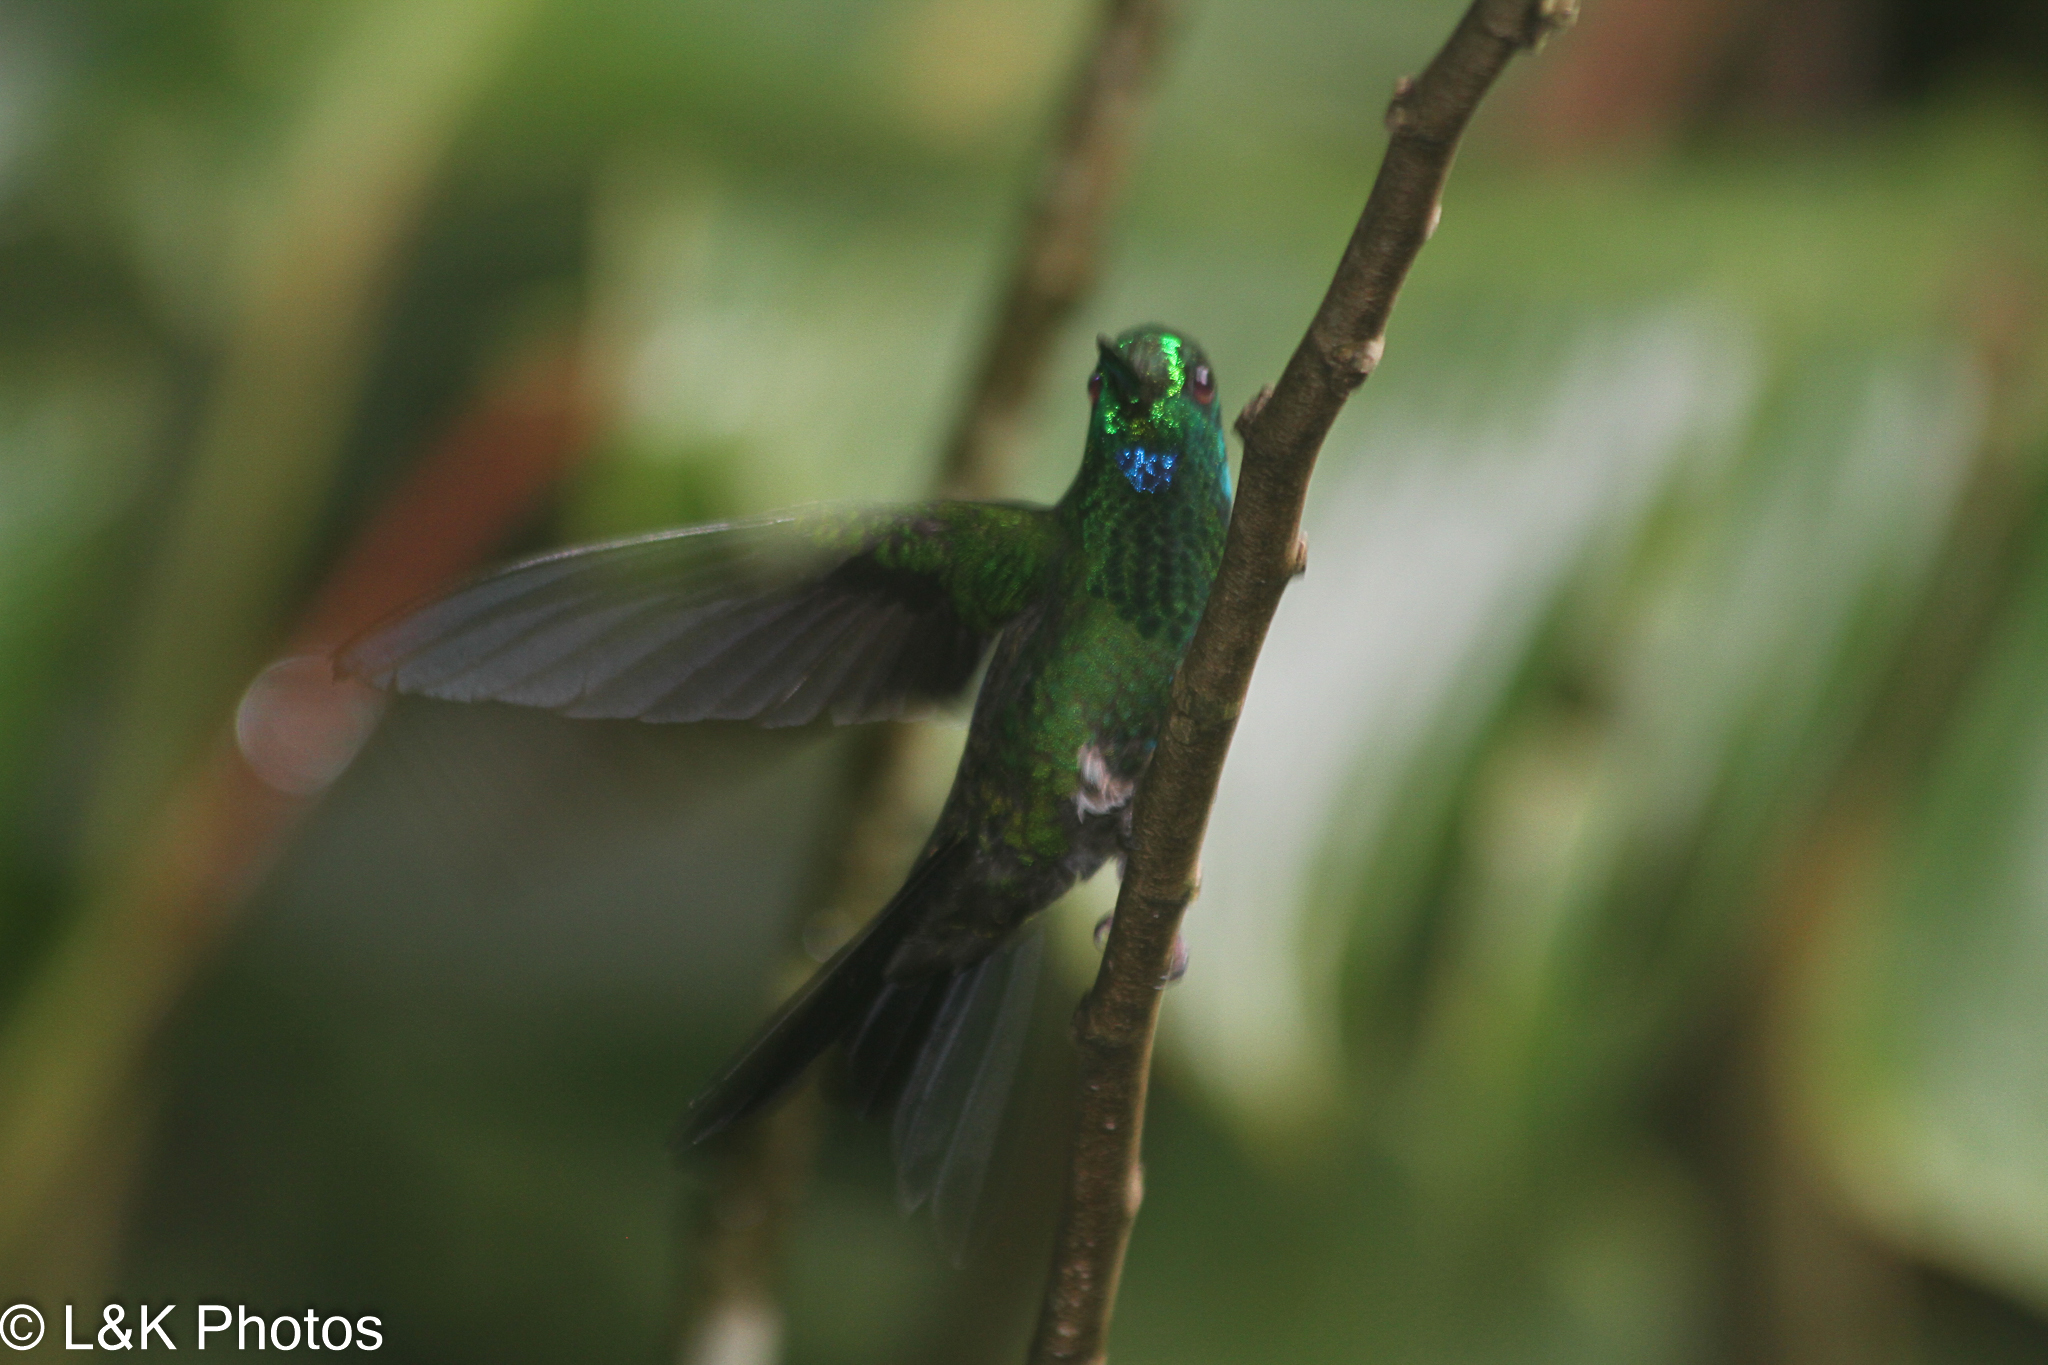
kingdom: Animalia
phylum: Chordata
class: Aves
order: Apodiformes
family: Trochilidae
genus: Heliodoxa
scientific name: Heliodoxa jacula
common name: Green-crowned brilliant
